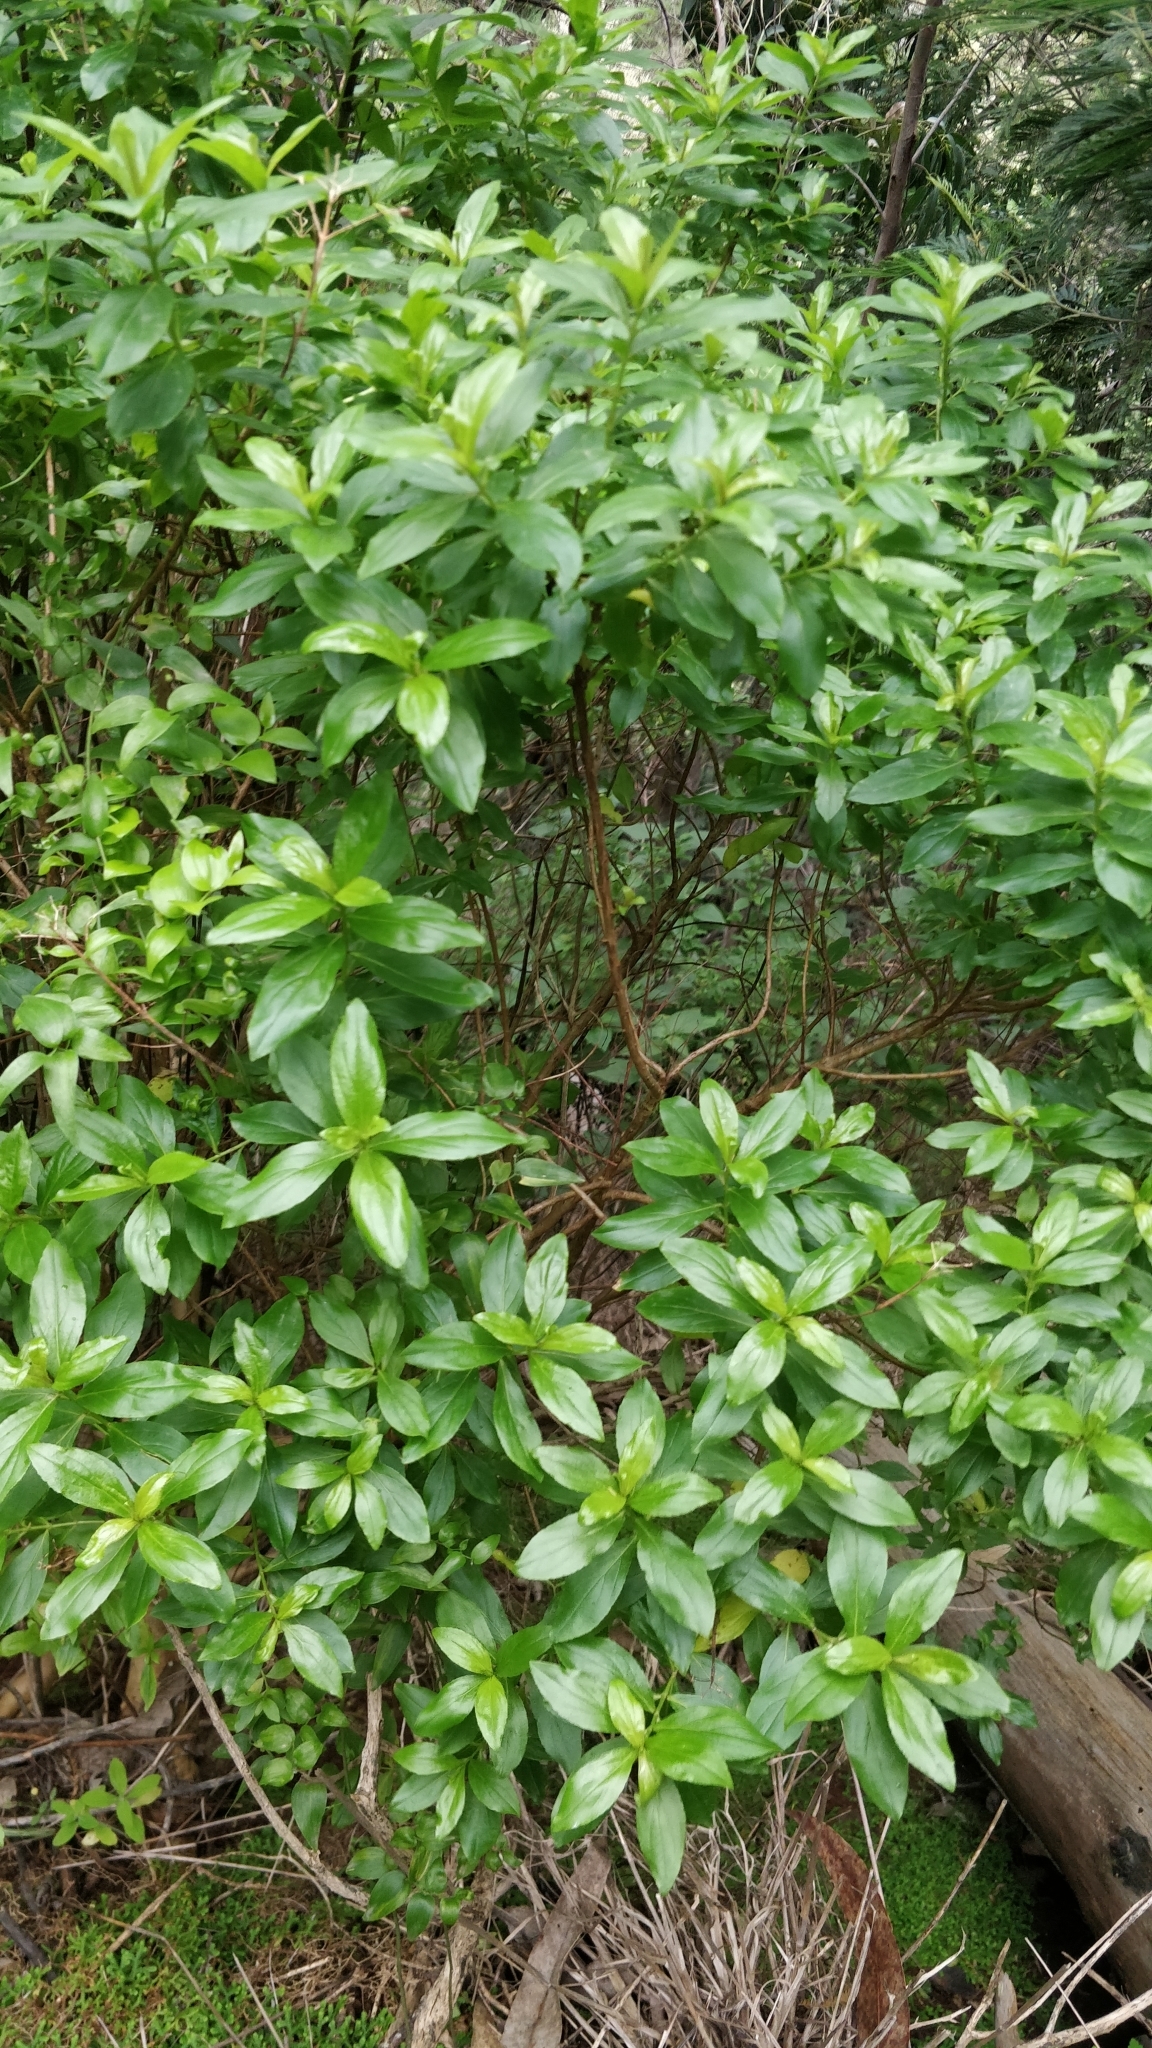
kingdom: Plantae
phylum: Tracheophyta
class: Magnoliopsida
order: Malpighiales
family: Hypericaceae
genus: Hypericum
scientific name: Hypericum glandulosum
